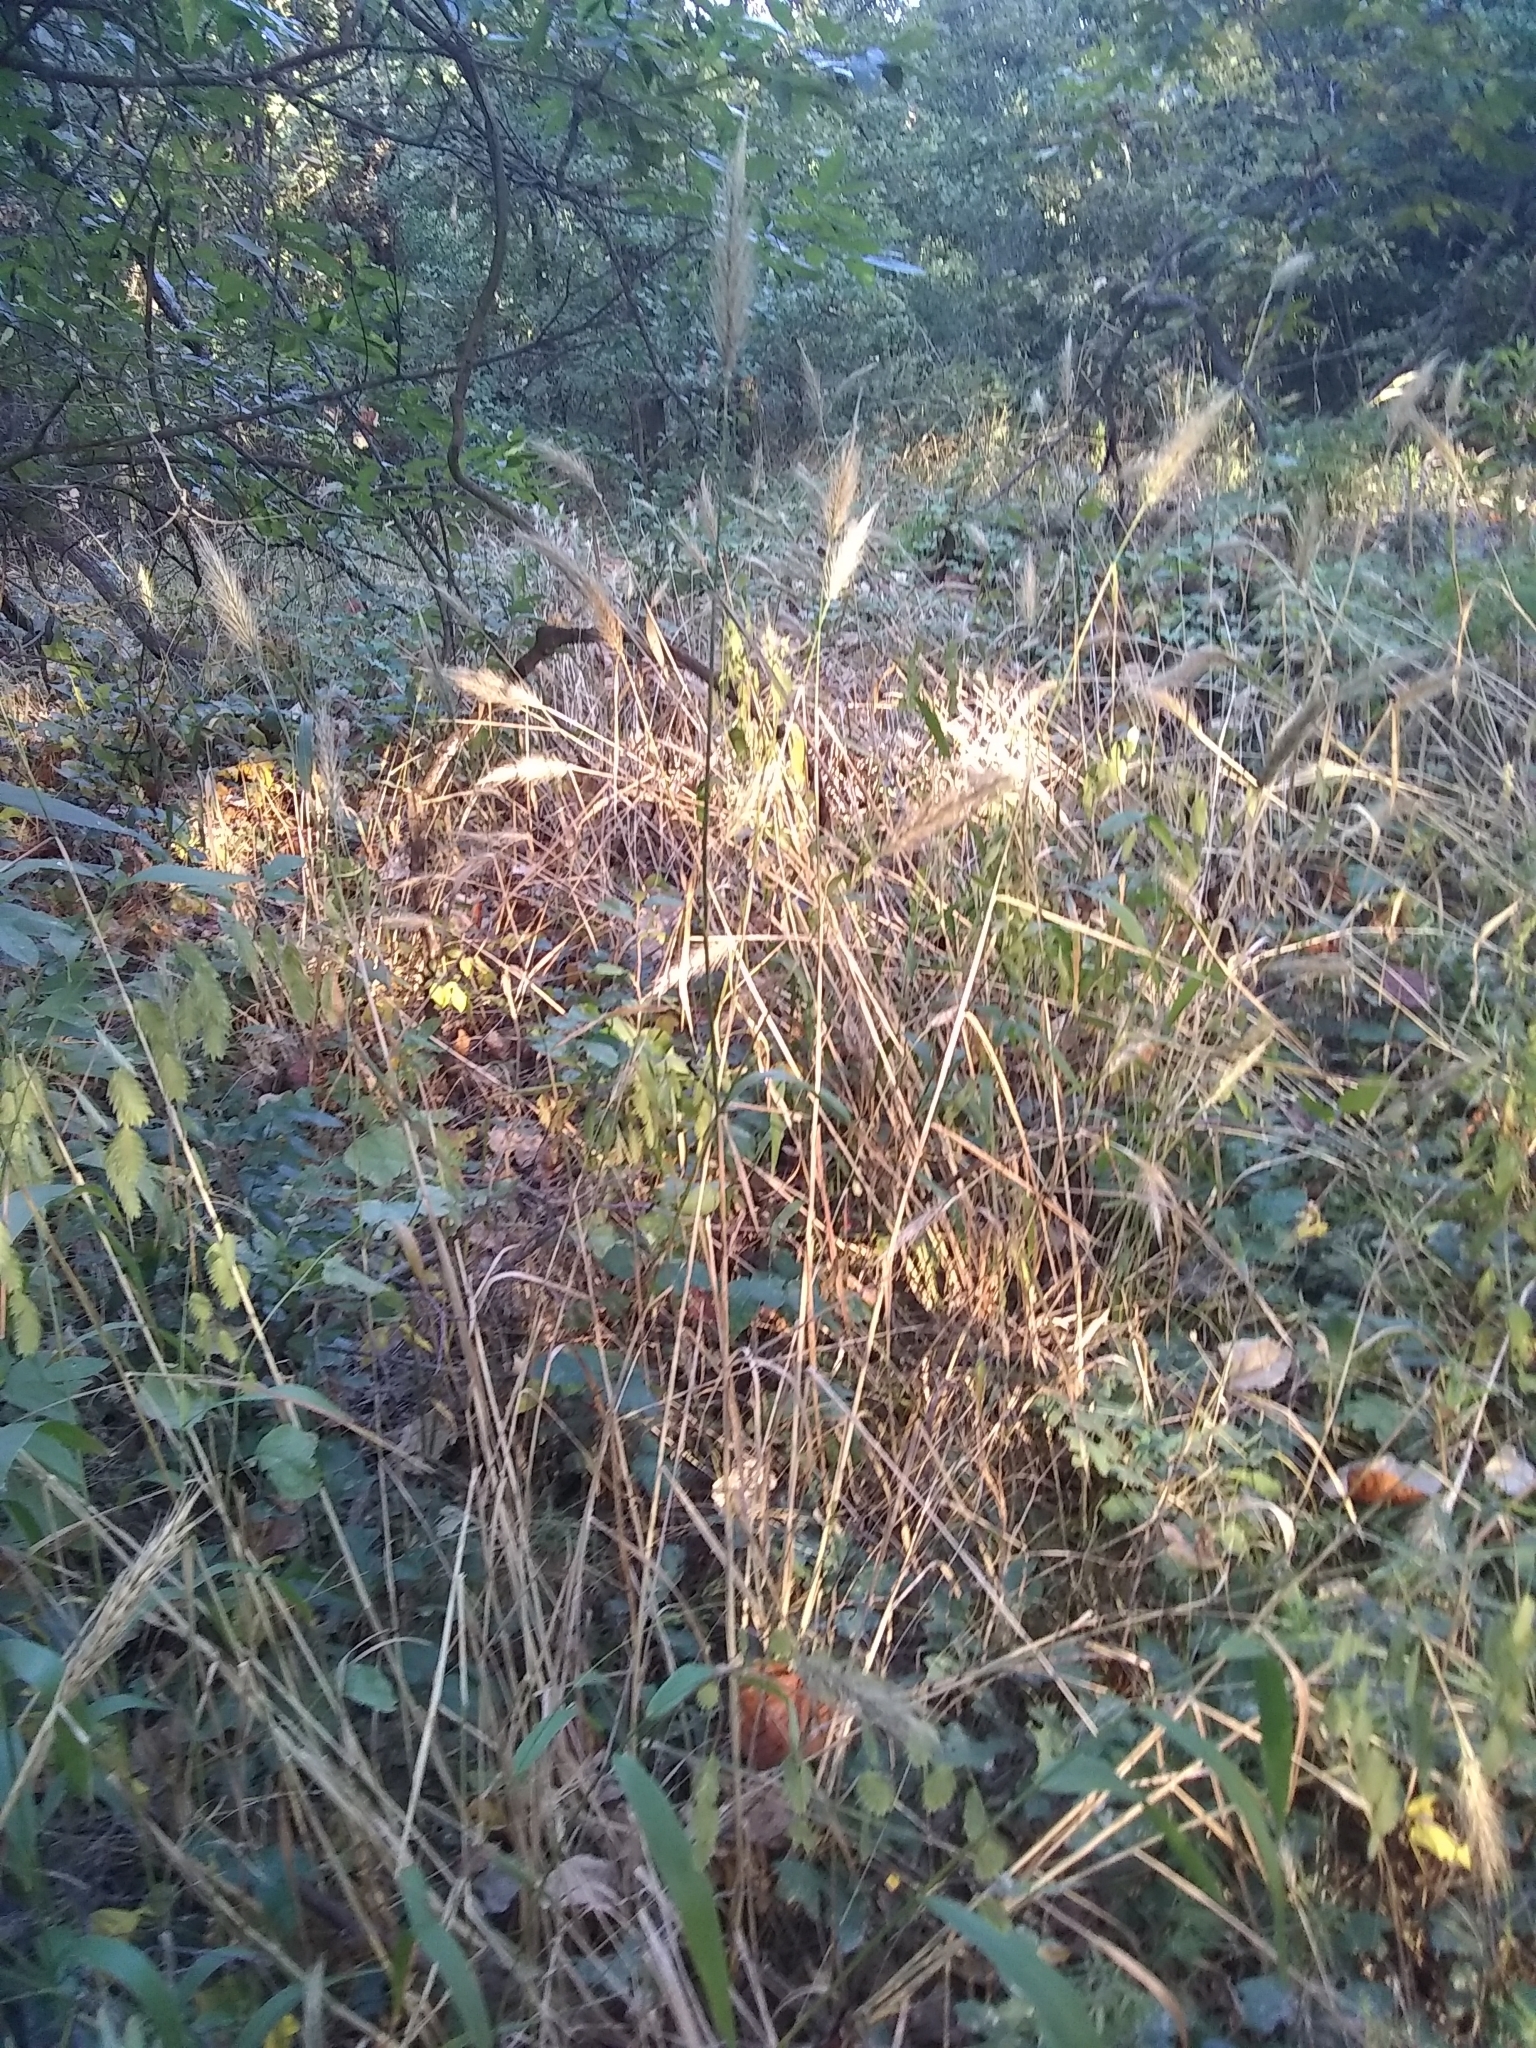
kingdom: Plantae
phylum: Tracheophyta
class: Liliopsida
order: Poales
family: Poaceae
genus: Elymus
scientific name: Elymus virginicus
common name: Common eastern wildrye
